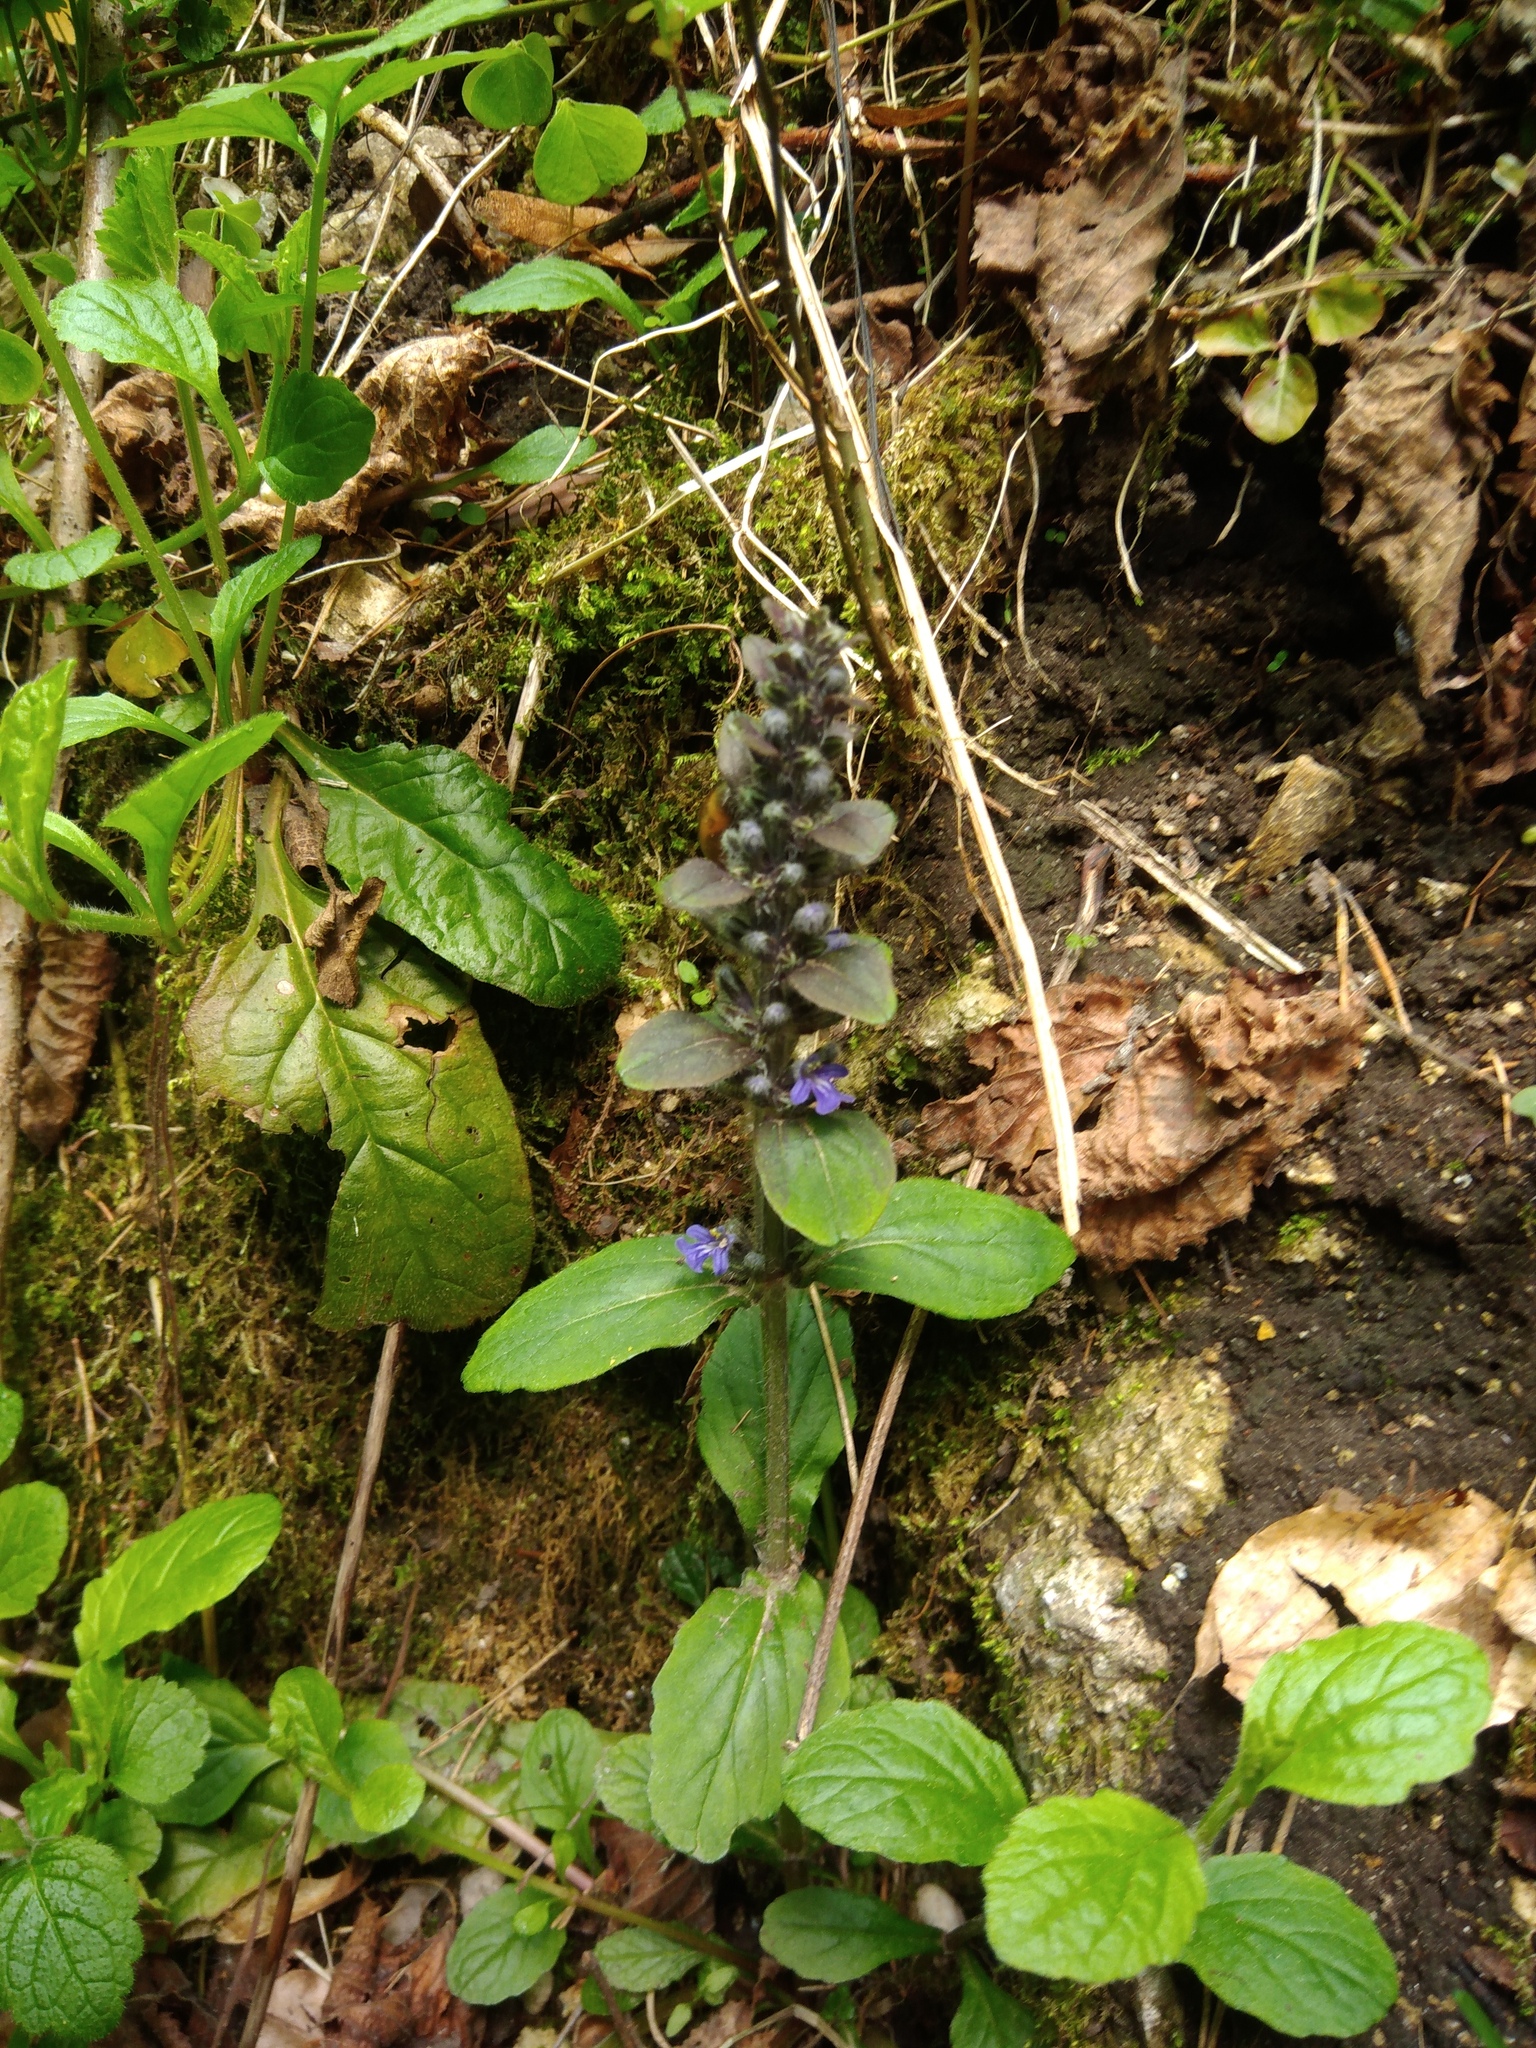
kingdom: Plantae
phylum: Tracheophyta
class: Magnoliopsida
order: Lamiales
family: Lamiaceae
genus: Ajuga
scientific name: Ajuga reptans
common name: Bugle
